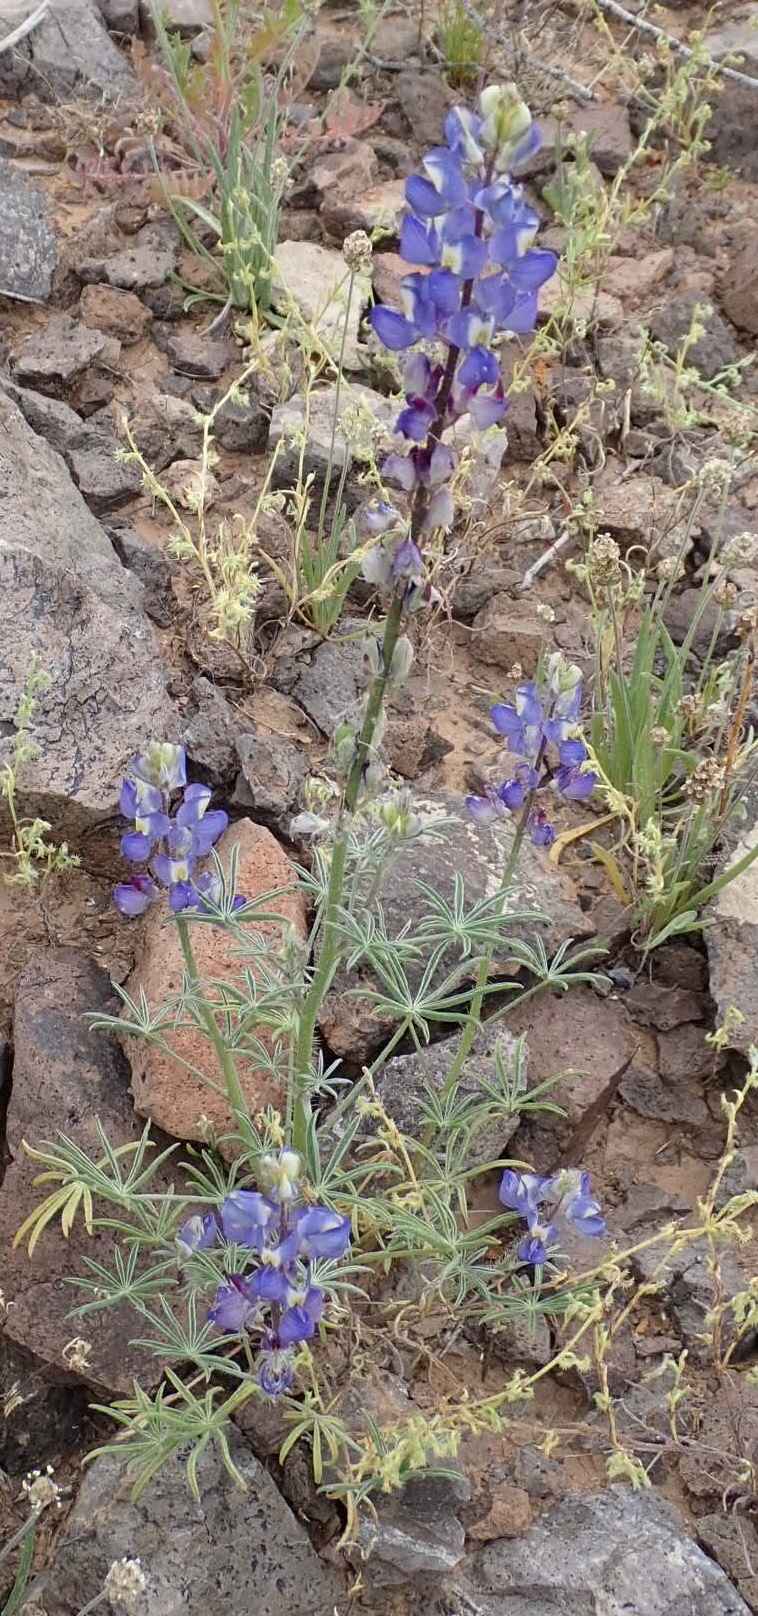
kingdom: Plantae
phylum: Tracheophyta
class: Magnoliopsida
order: Fabales
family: Fabaceae
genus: Lupinus
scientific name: Lupinus sparsiflorus
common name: Coulter's lupine
